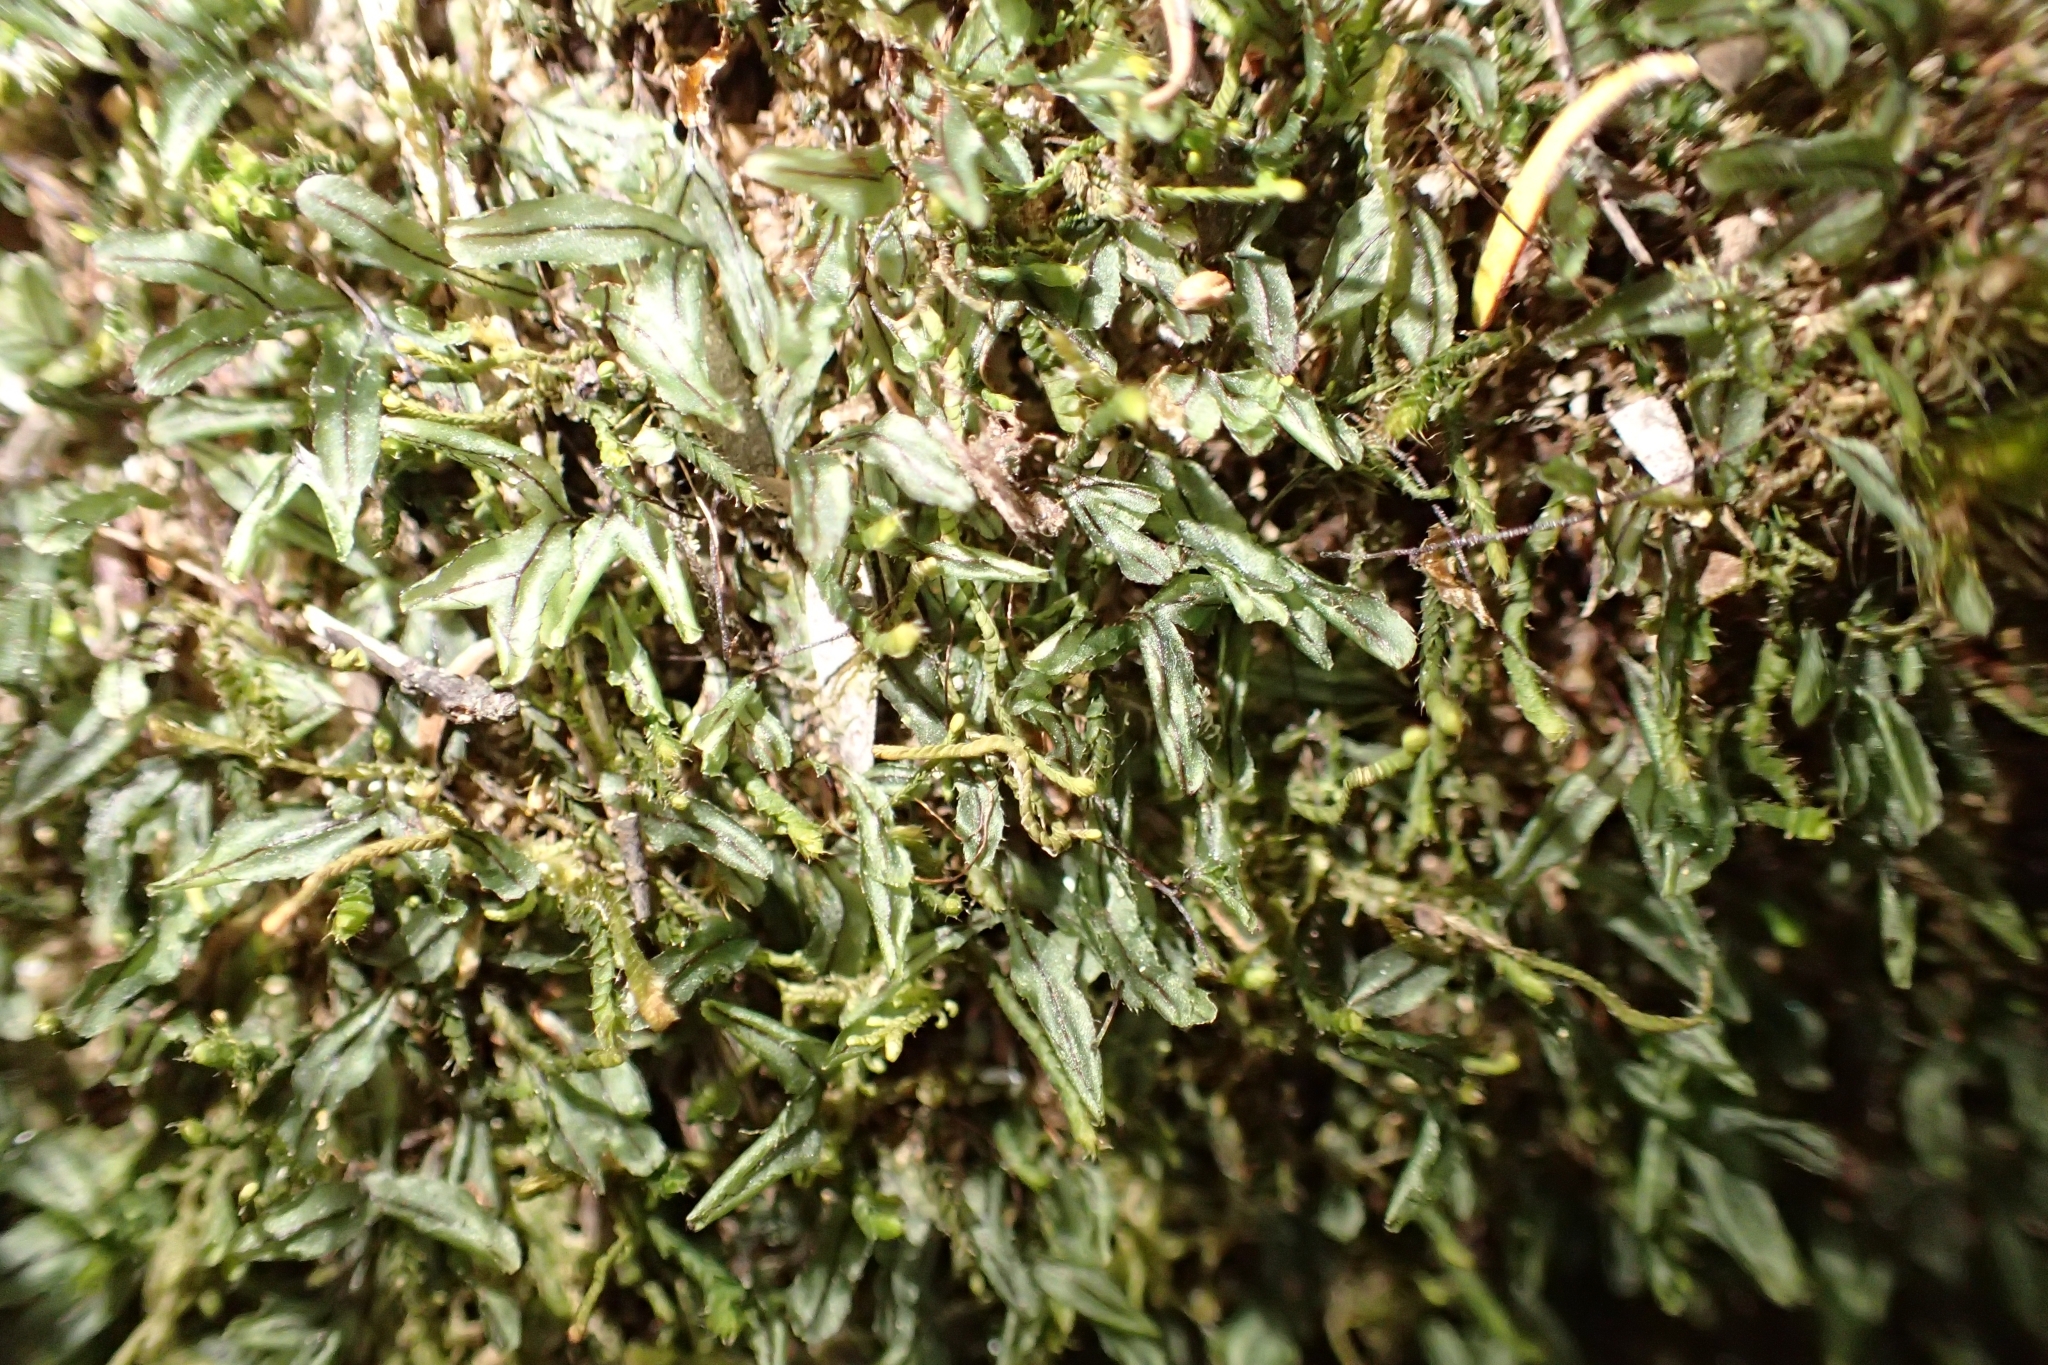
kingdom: Plantae
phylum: Tracheophyta
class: Polypodiopsida
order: Hymenophyllales
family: Hymenophyllaceae
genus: Hymenophyllum
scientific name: Hymenophyllum armstrongii
